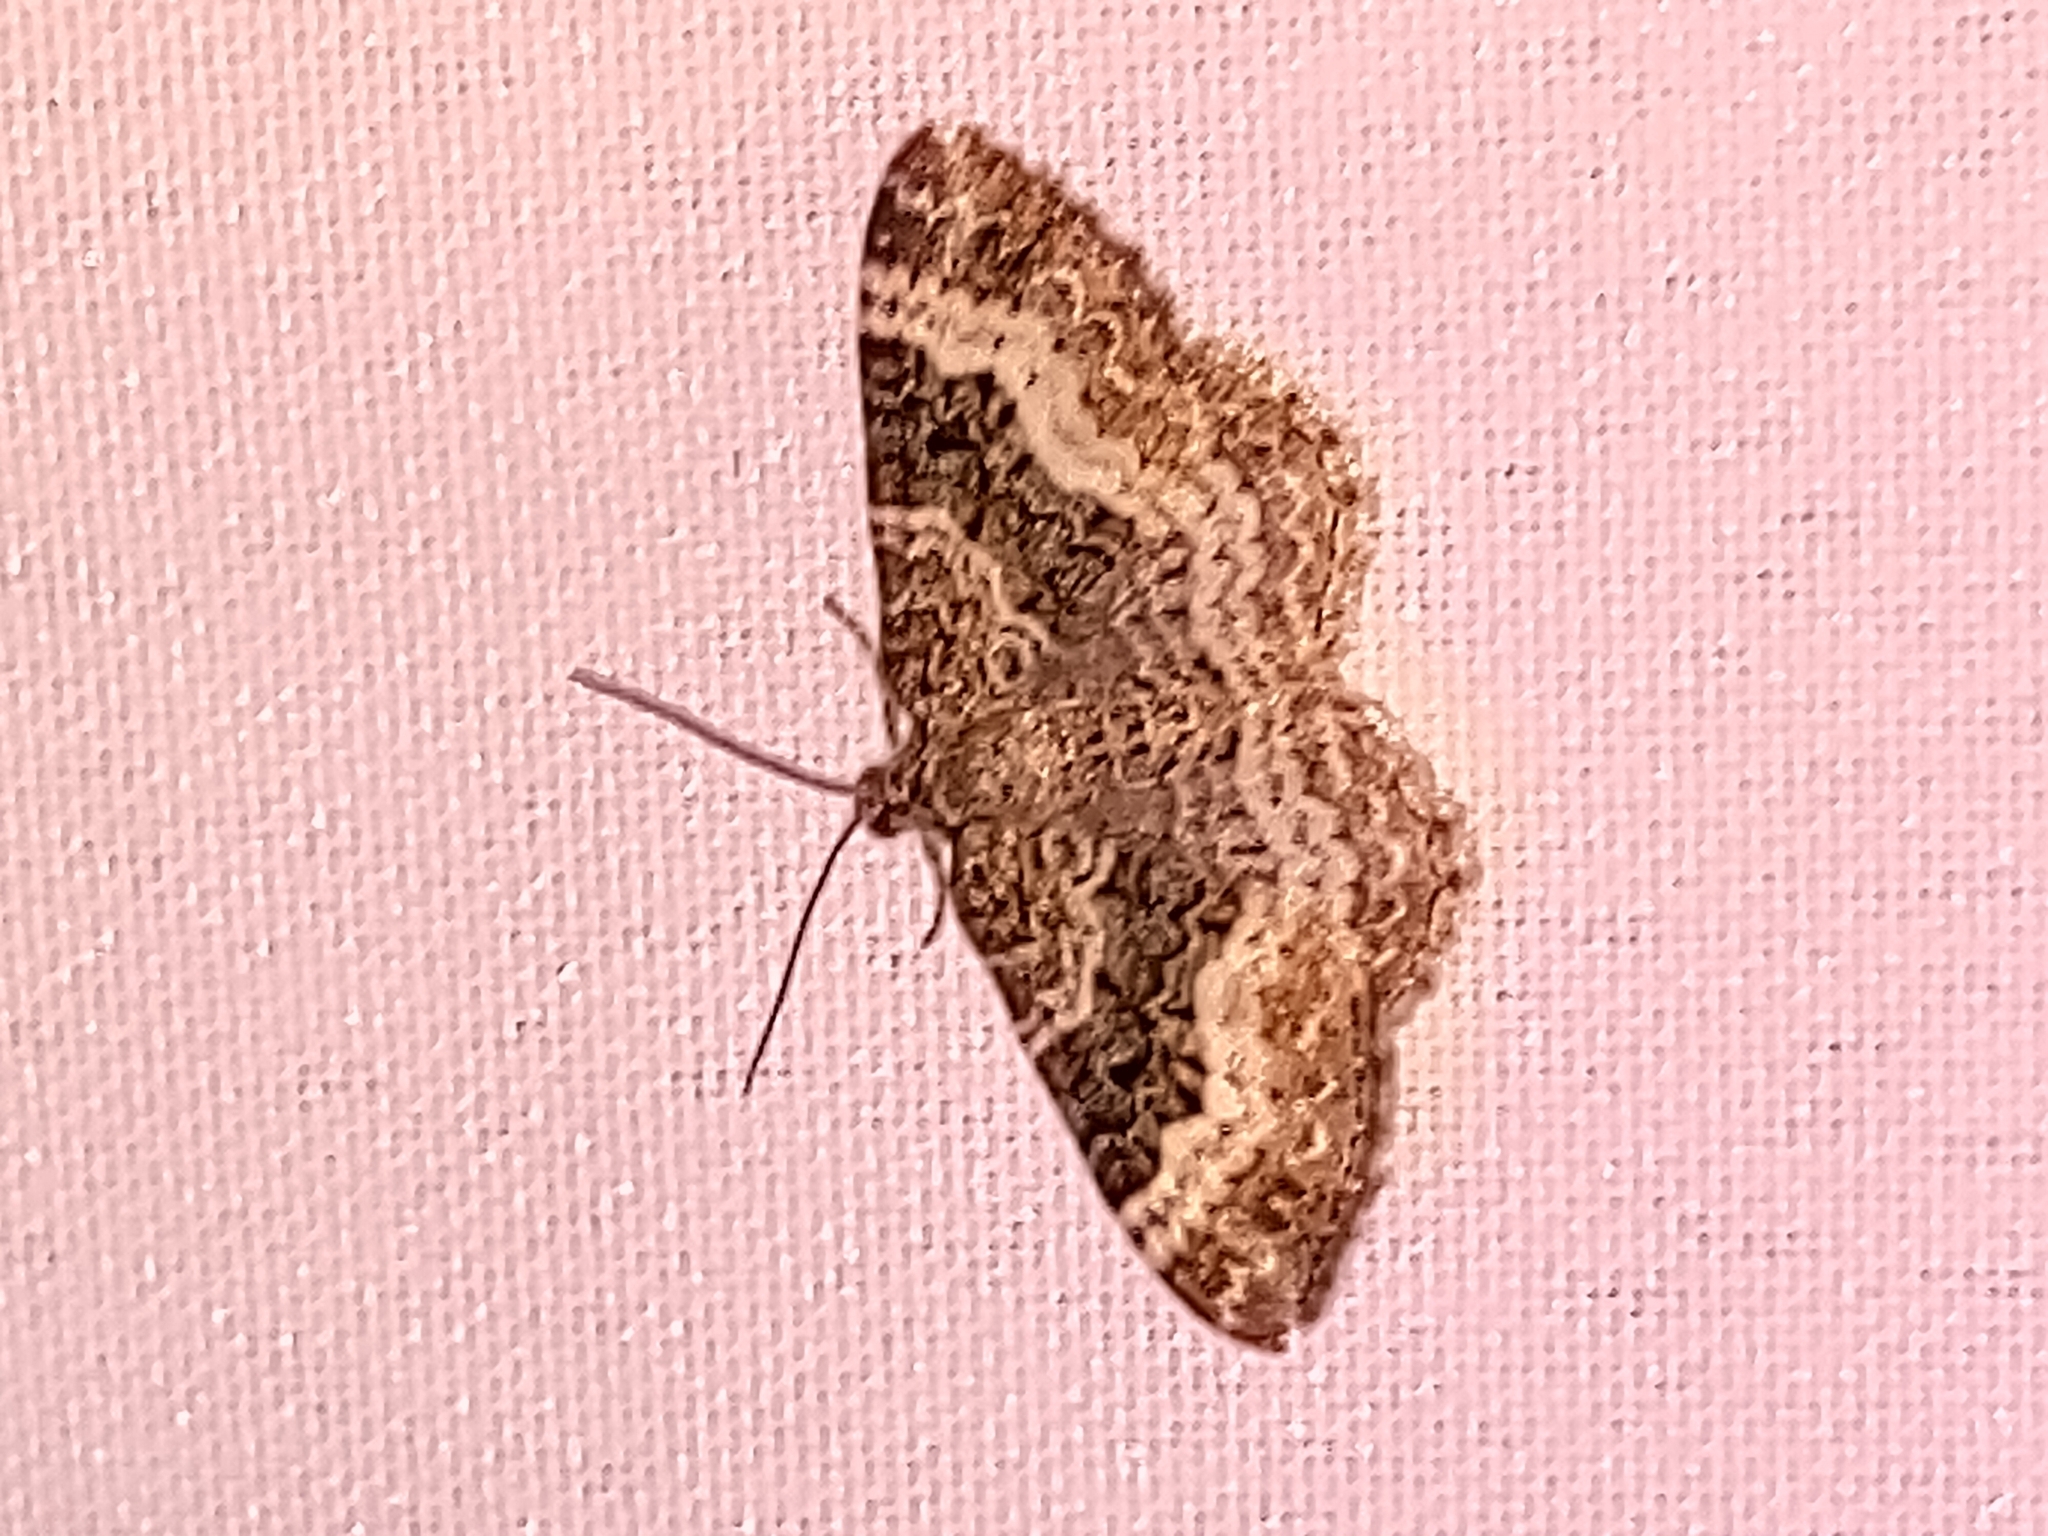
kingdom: Animalia
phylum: Arthropoda
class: Insecta
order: Lepidoptera
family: Geometridae
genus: Epirrhoe
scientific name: Epirrhoe alternata
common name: Common carpet
